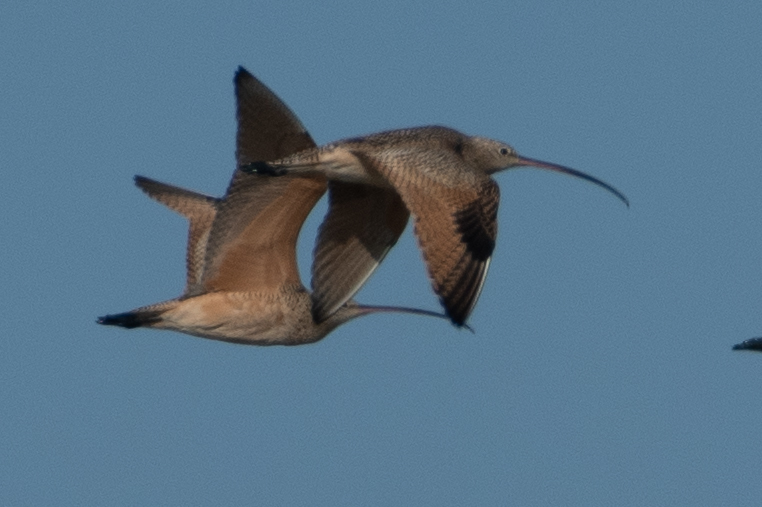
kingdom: Animalia
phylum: Chordata
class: Aves
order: Charadriiformes
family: Scolopacidae
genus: Numenius
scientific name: Numenius americanus
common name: Long-billed curlew
